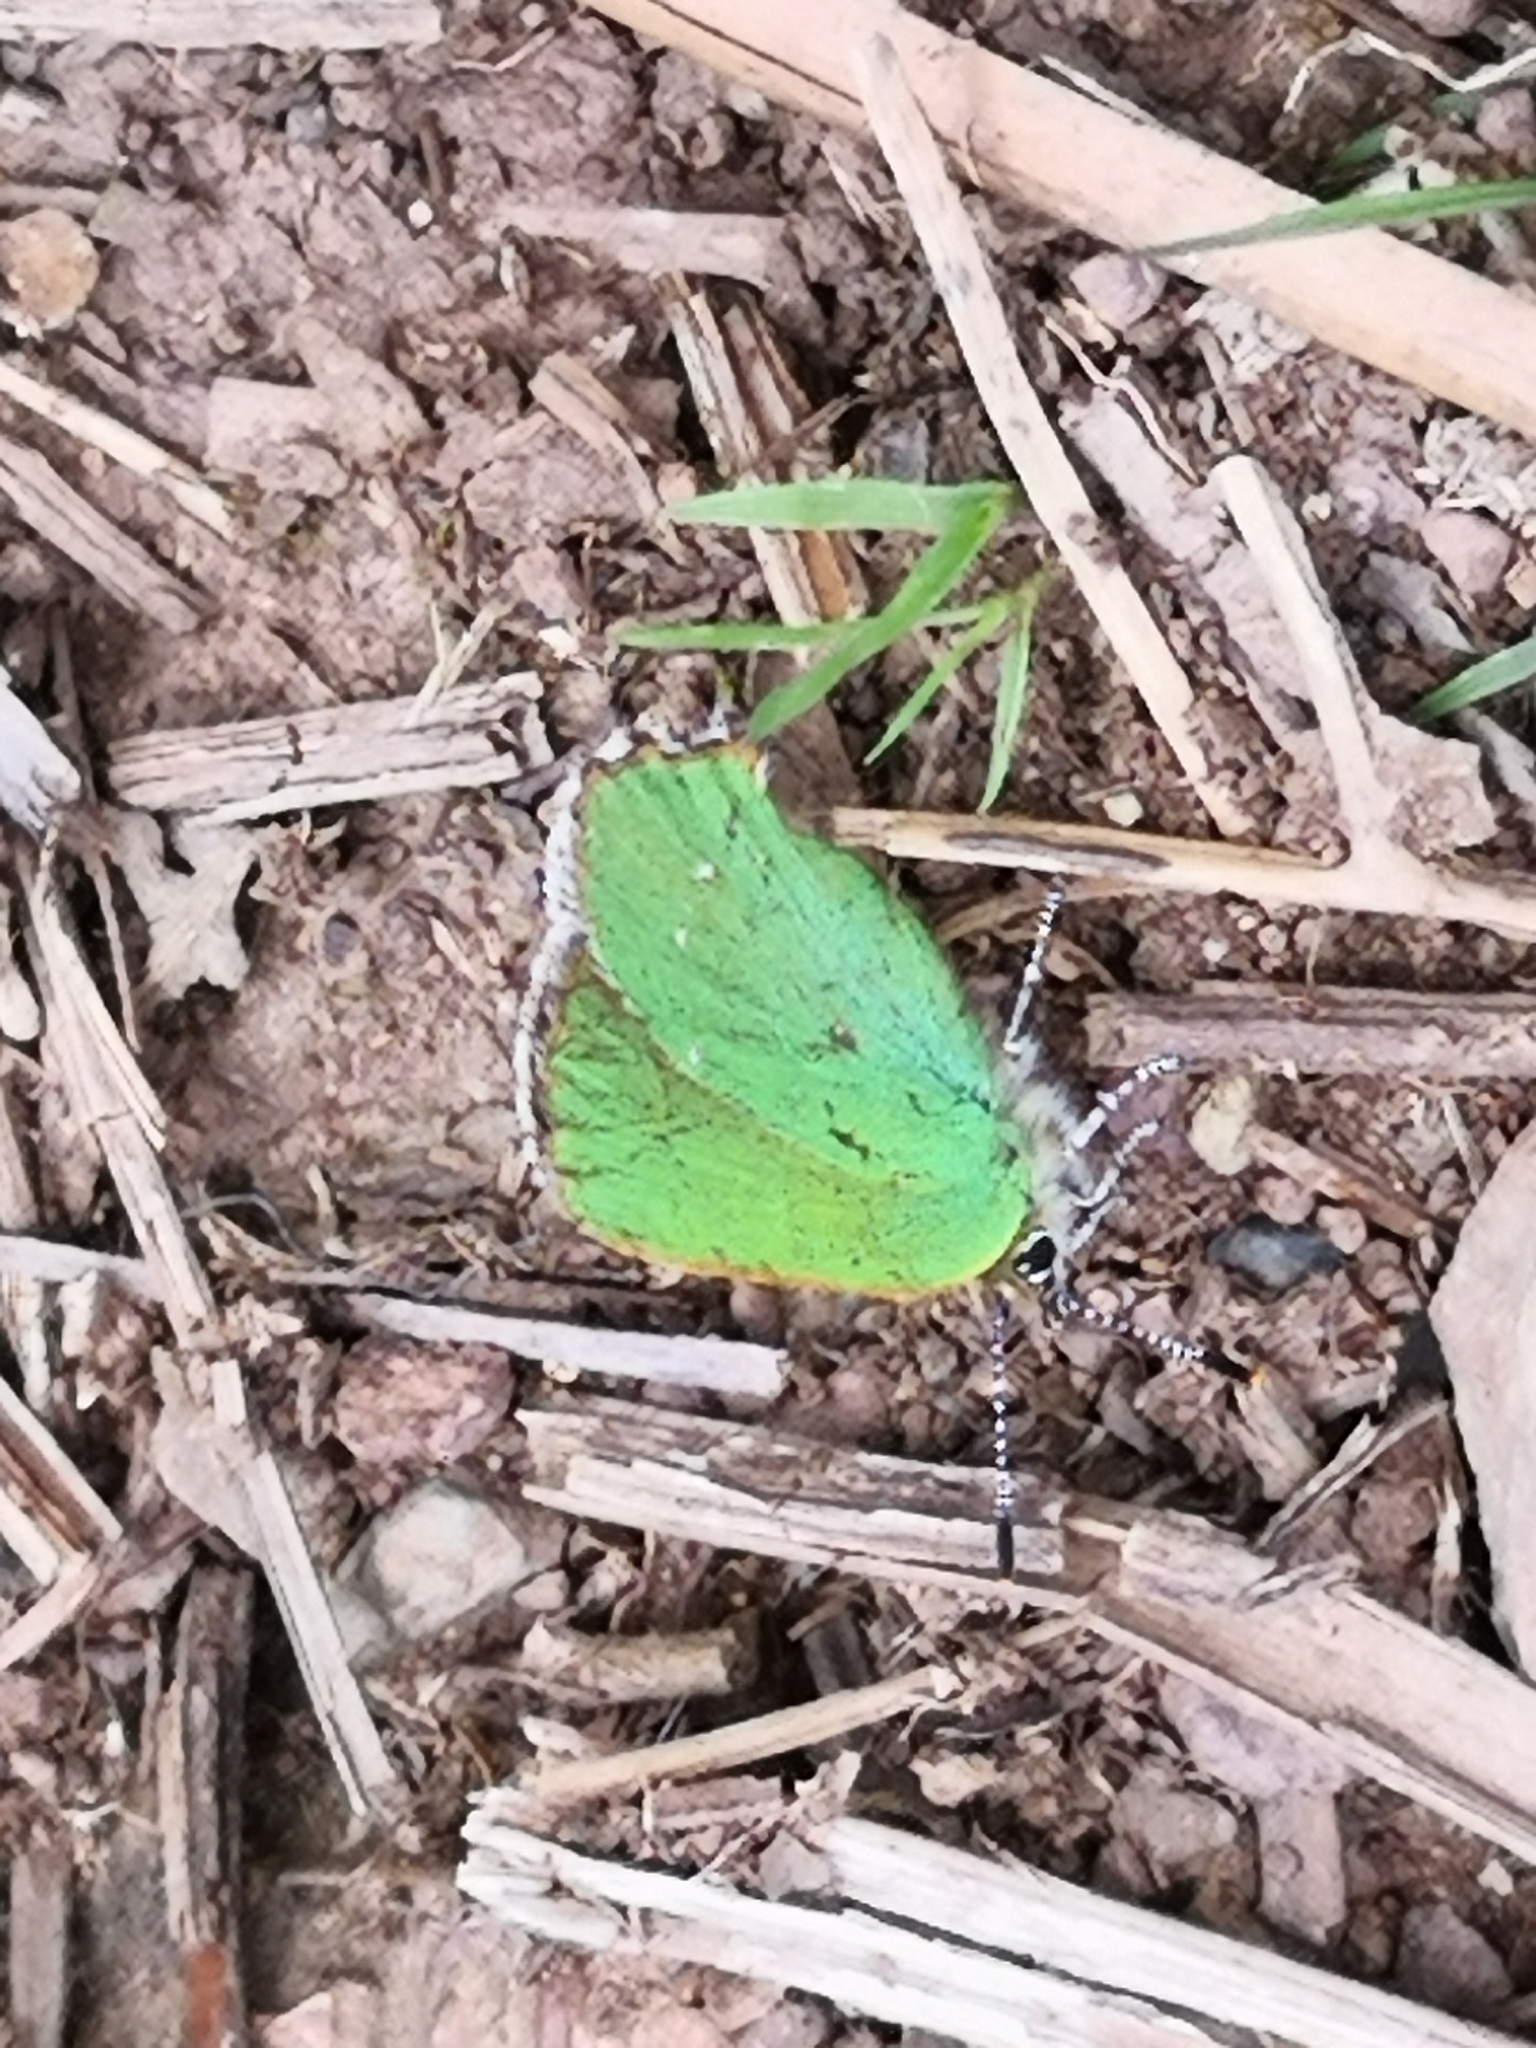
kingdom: Animalia
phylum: Arthropoda
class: Insecta
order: Lepidoptera
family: Lycaenidae
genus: Callophrys
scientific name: Callophrys rubi
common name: Green hairstreak
